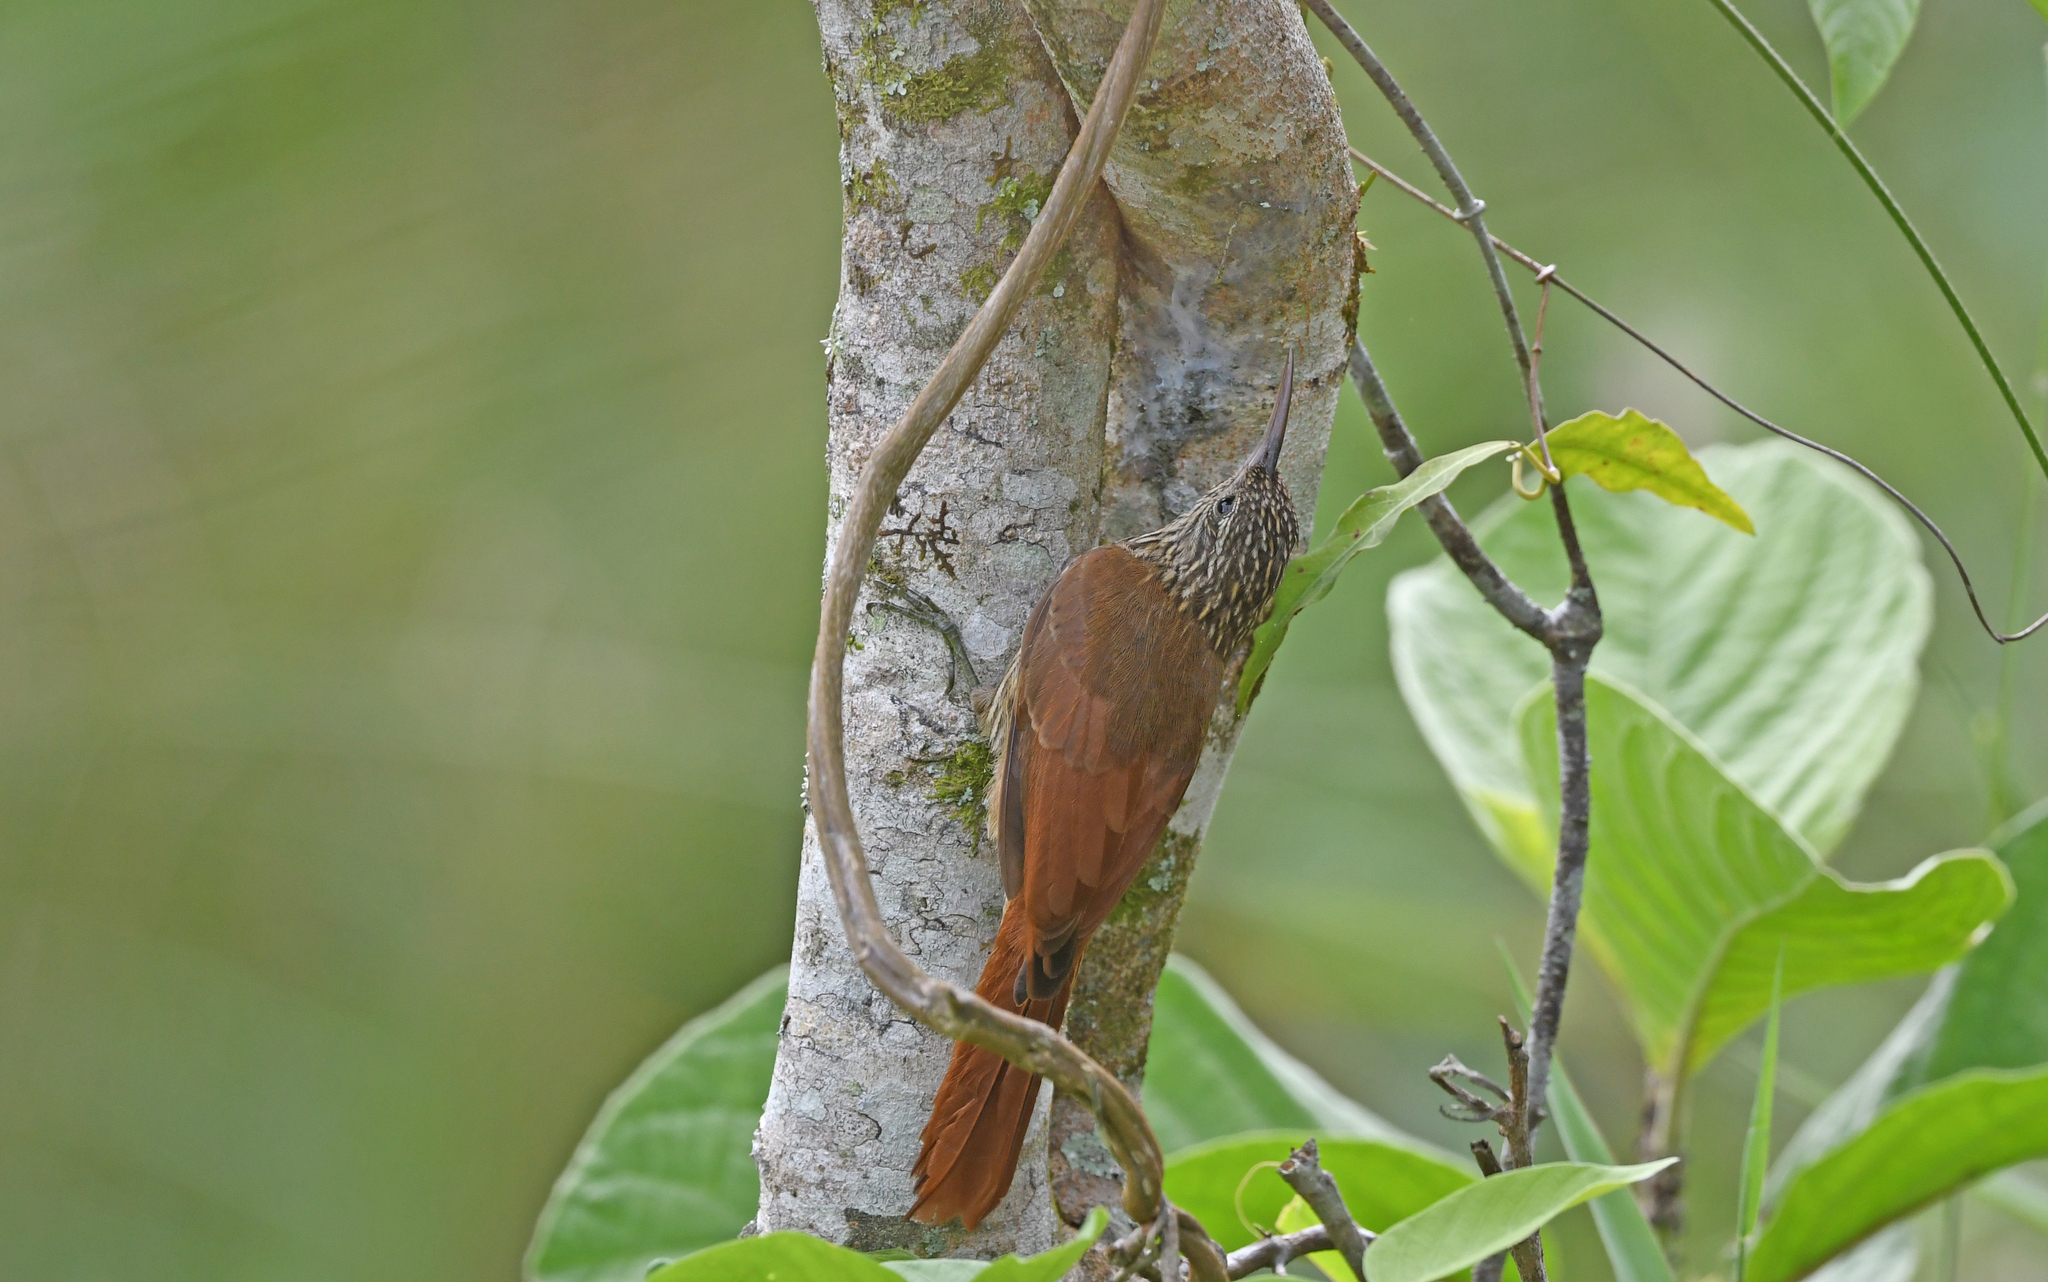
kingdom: Animalia
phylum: Chordata
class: Aves
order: Passeriformes
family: Furnariidae
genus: Lepidocolaptes
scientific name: Lepidocolaptes souleyetii
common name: Streak-headed woodcreeper
